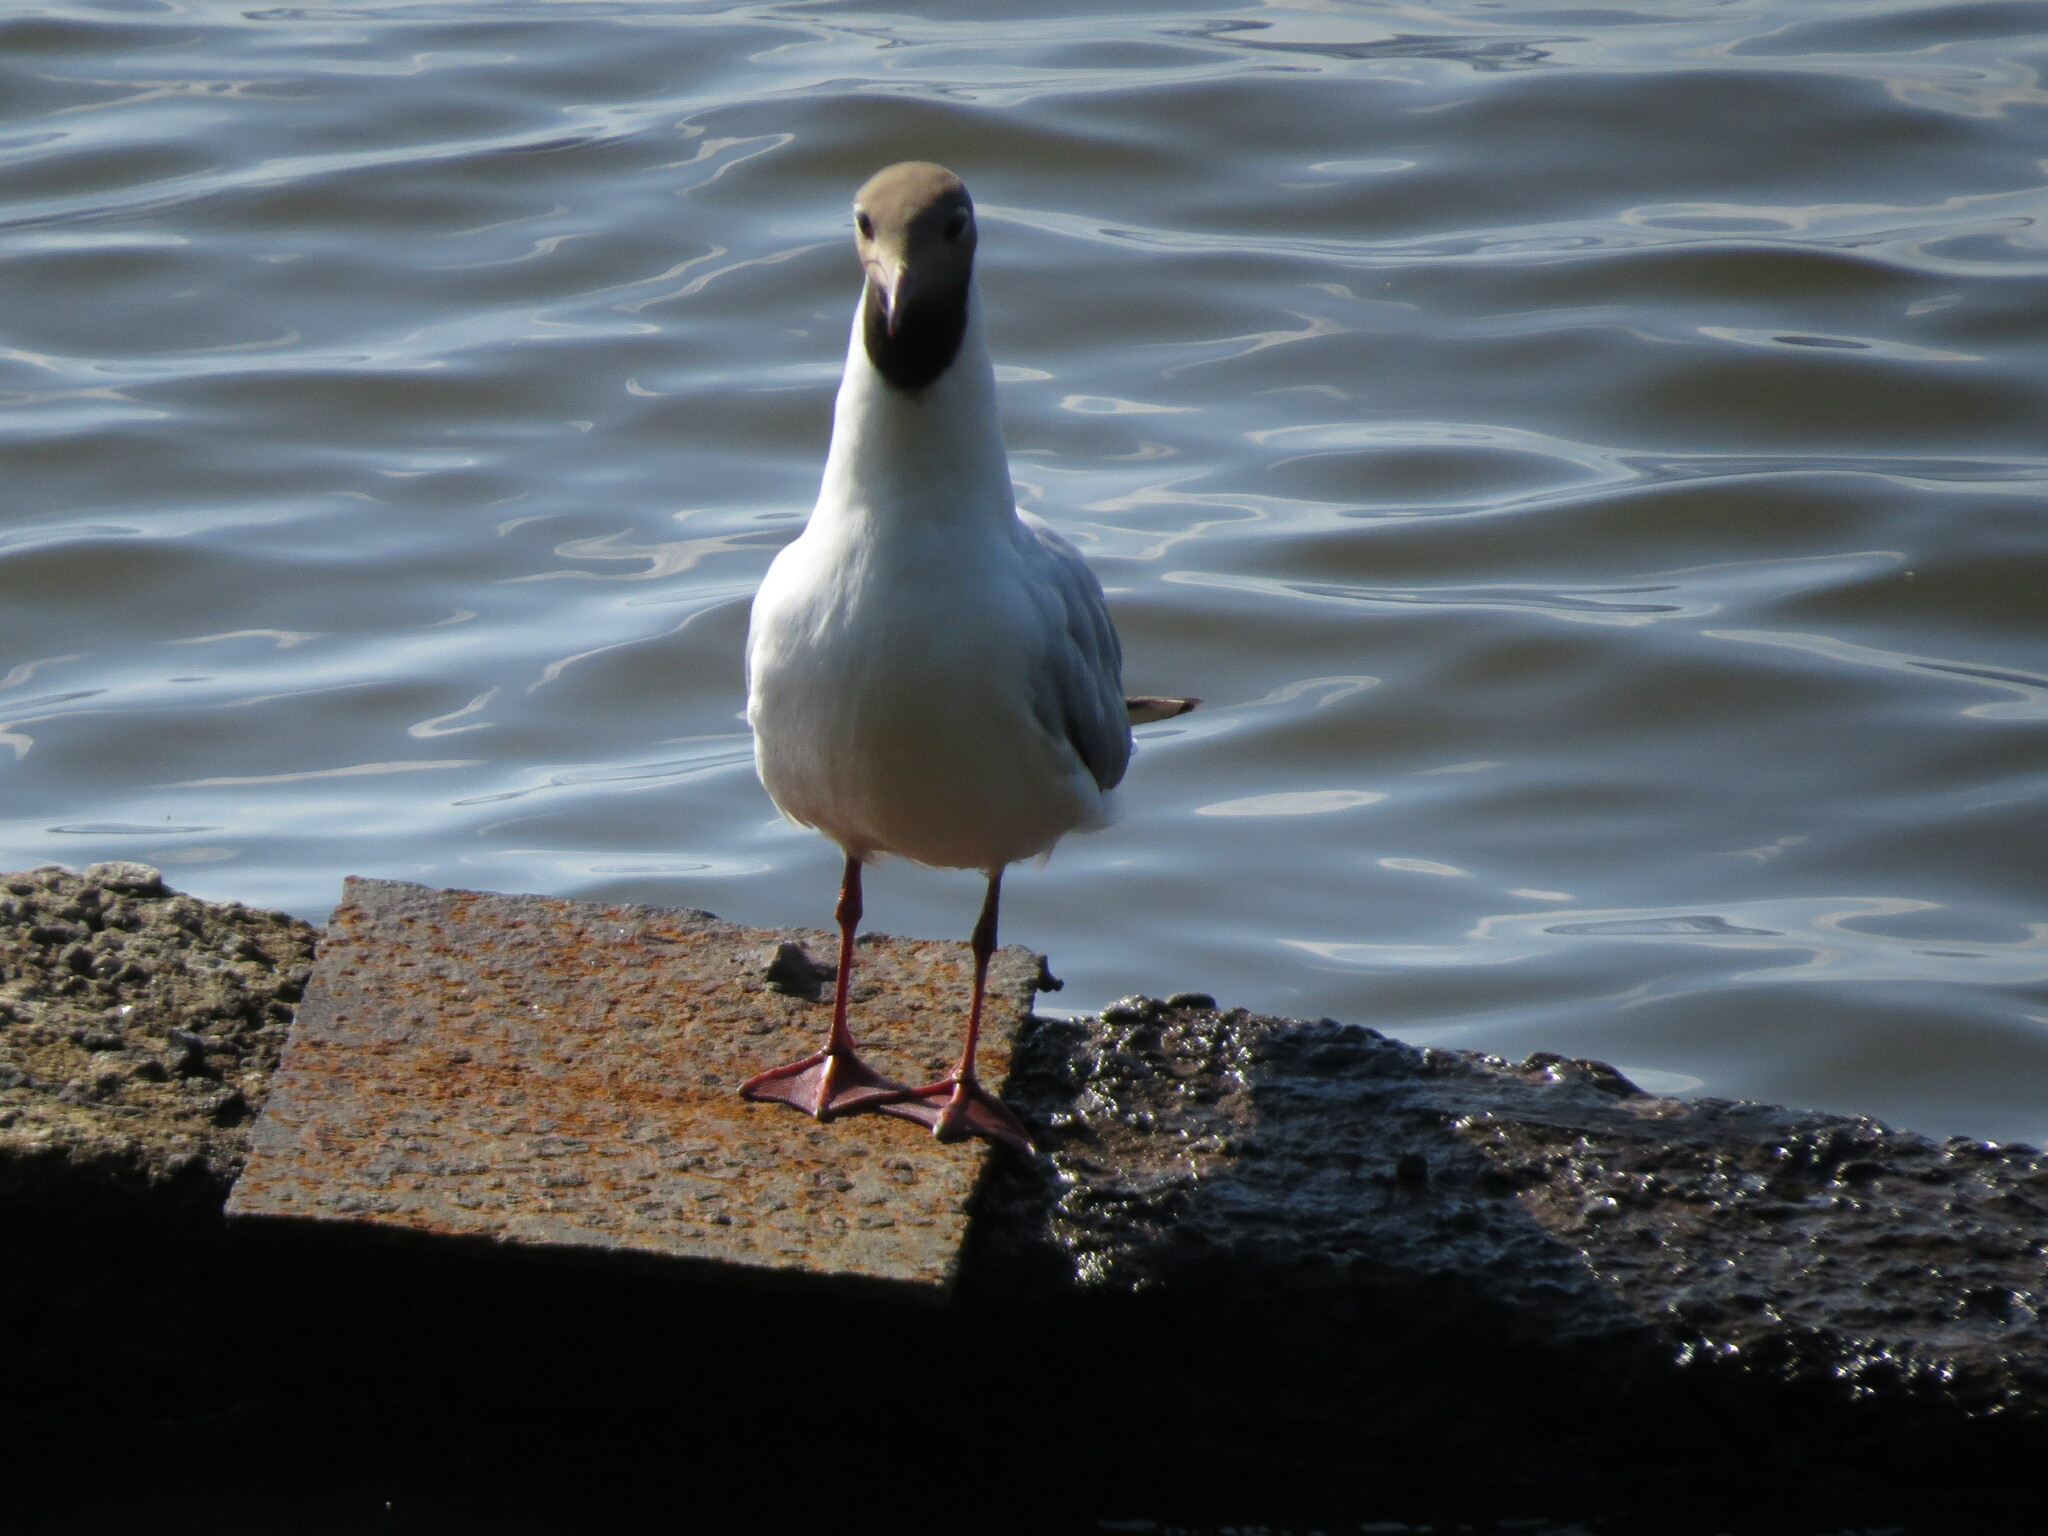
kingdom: Animalia
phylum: Chordata
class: Aves
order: Charadriiformes
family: Laridae
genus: Chroicocephalus
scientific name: Chroicocephalus ridibundus
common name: Black-headed gull
